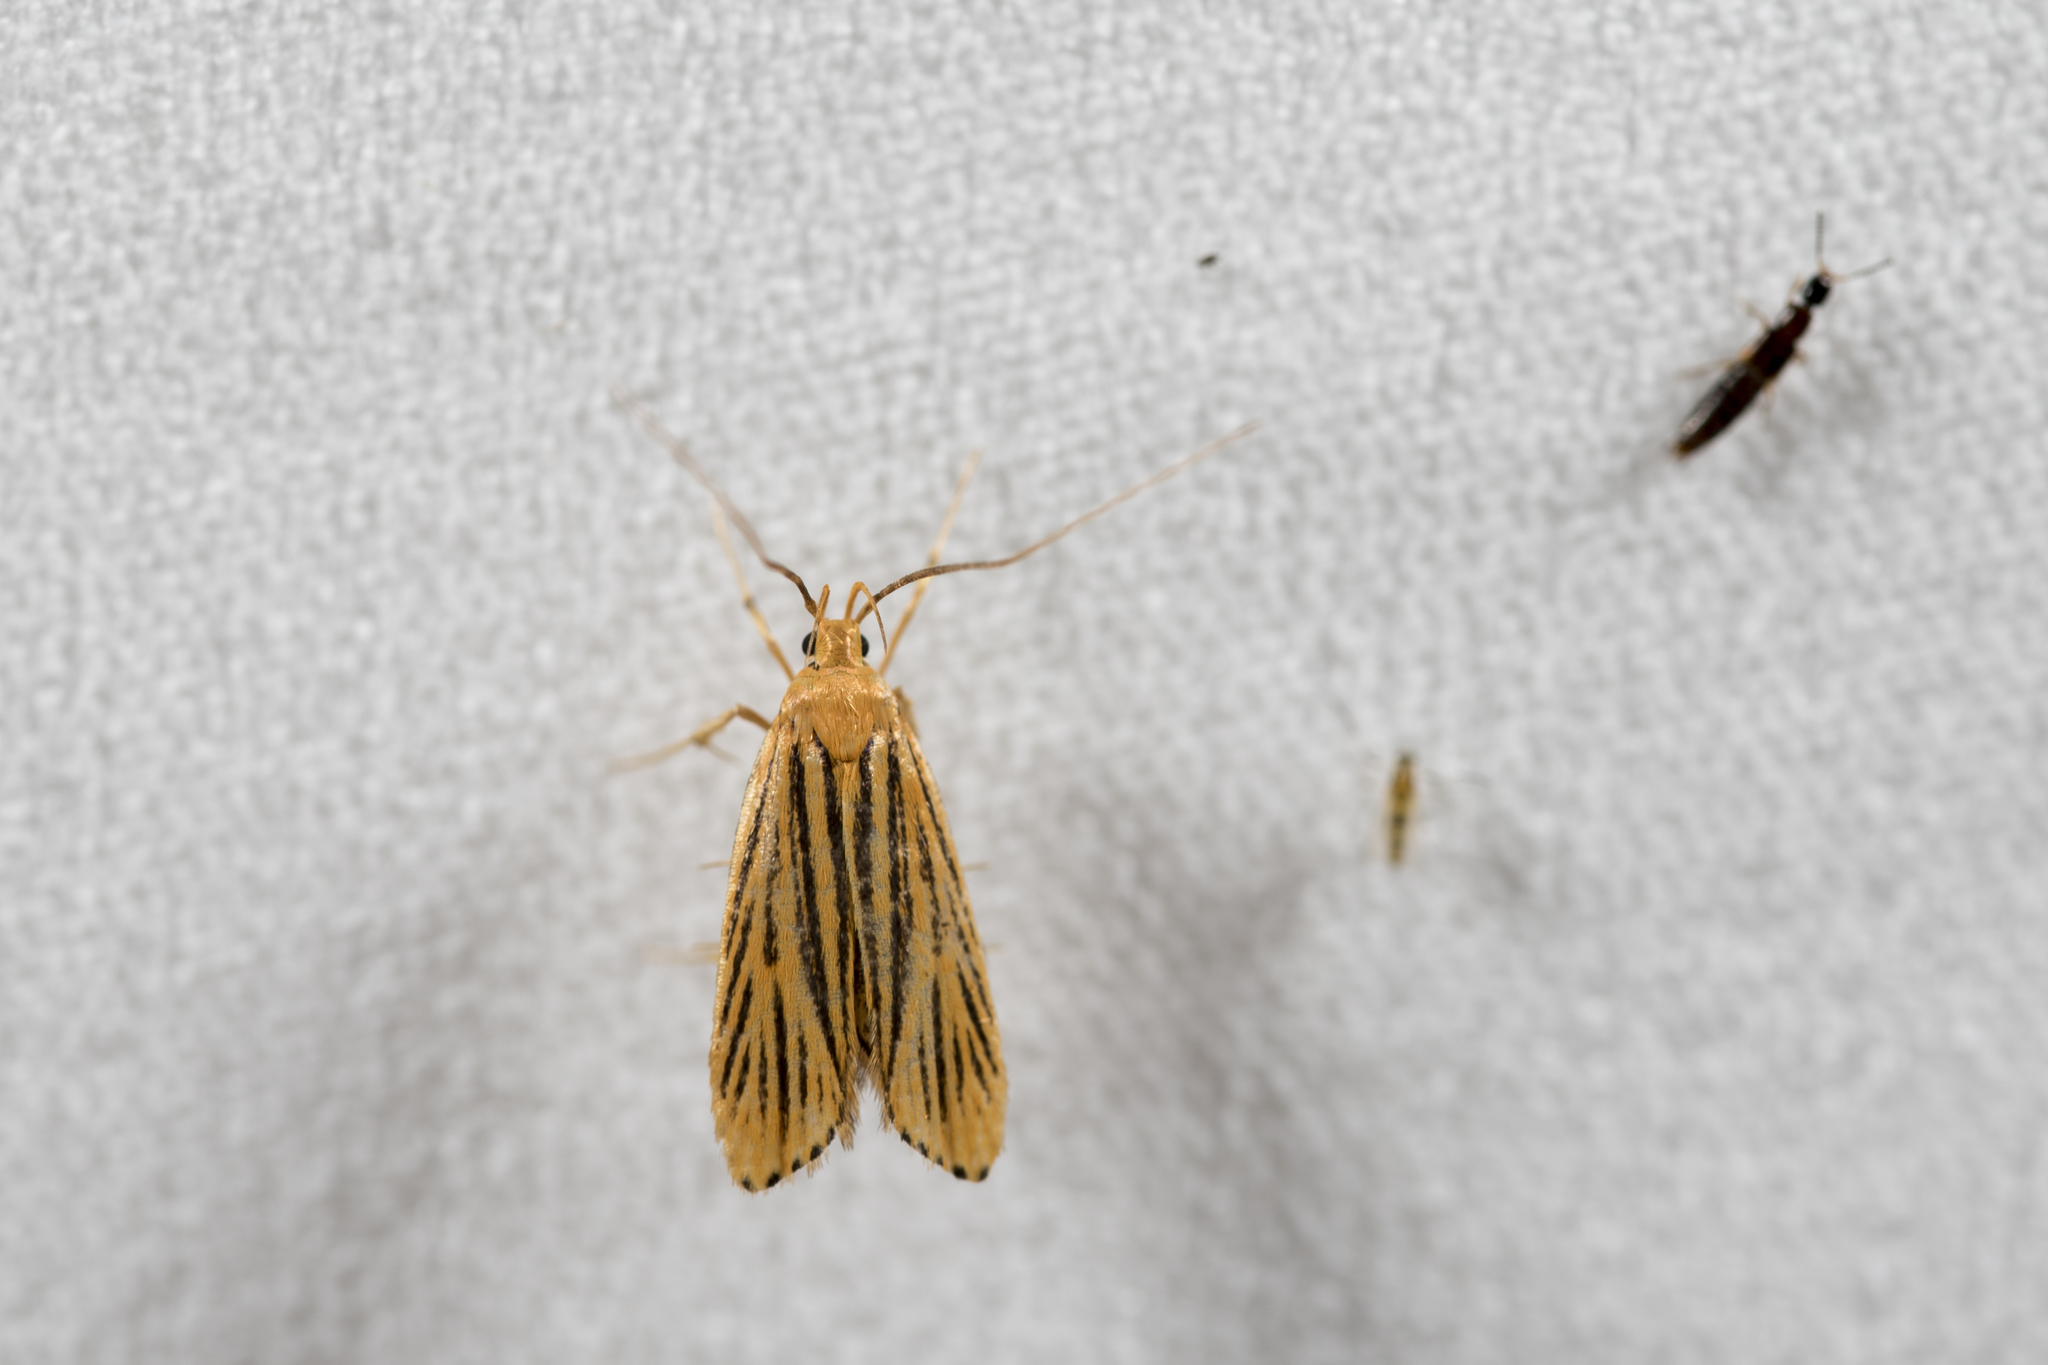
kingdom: Animalia
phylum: Arthropoda
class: Insecta
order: Lepidoptera
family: Lecithoceridae
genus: Caveana
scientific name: Caveana senuri
